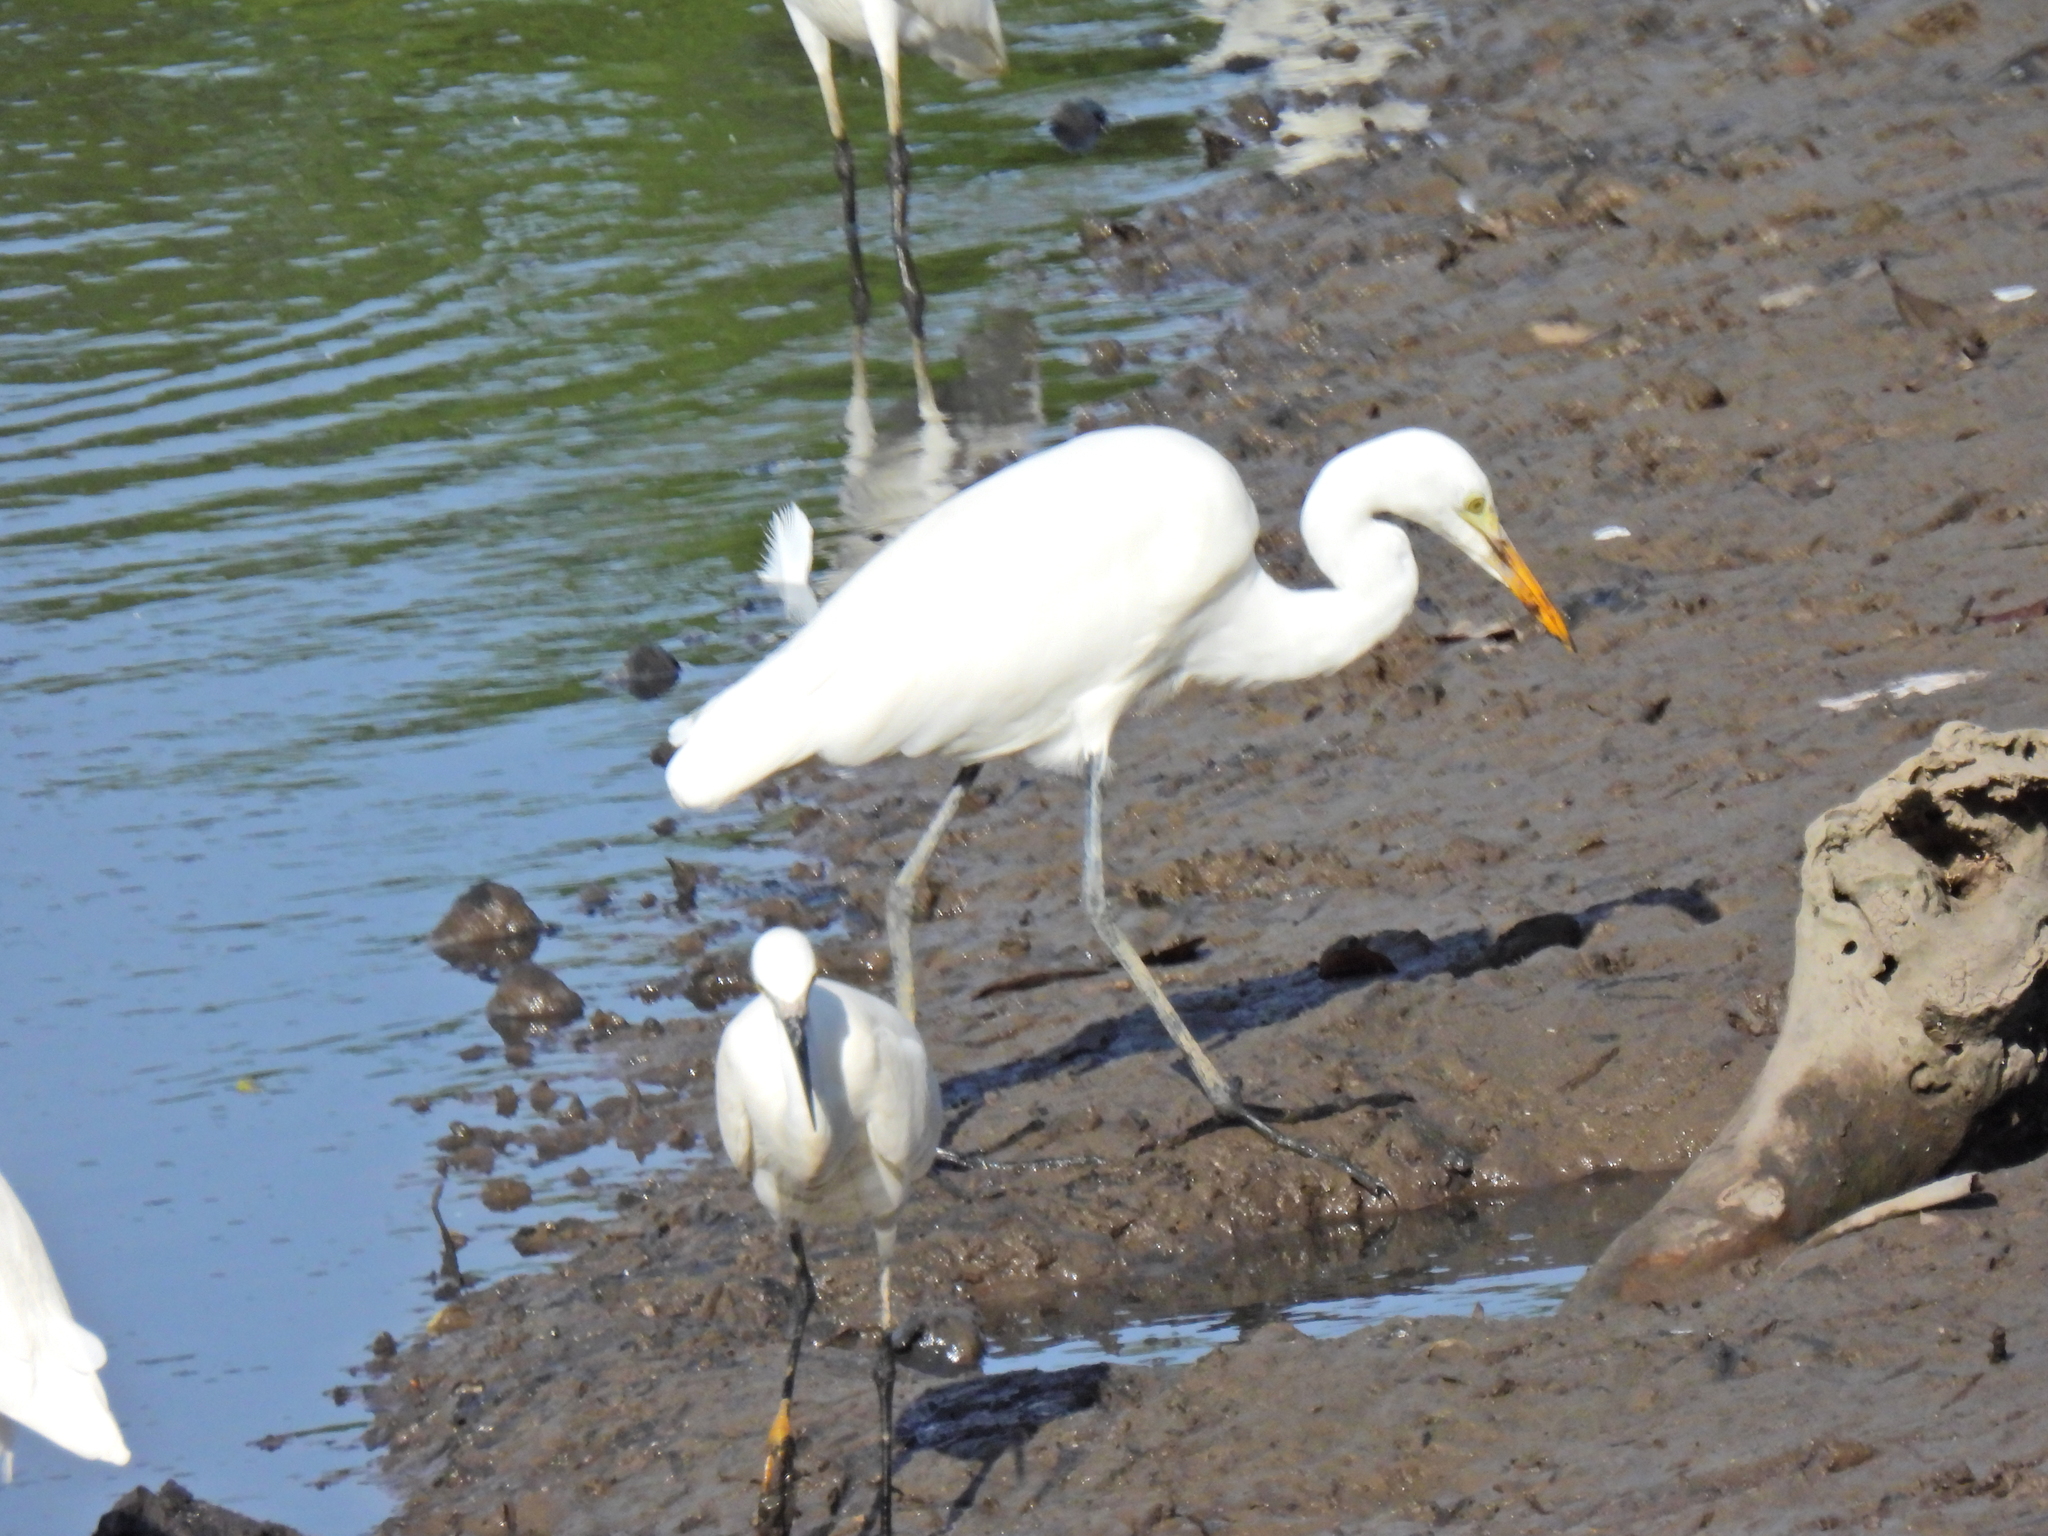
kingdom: Animalia
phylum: Chordata
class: Aves
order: Pelecaniformes
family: Ardeidae
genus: Ardea
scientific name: Ardea alba
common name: Great egret
